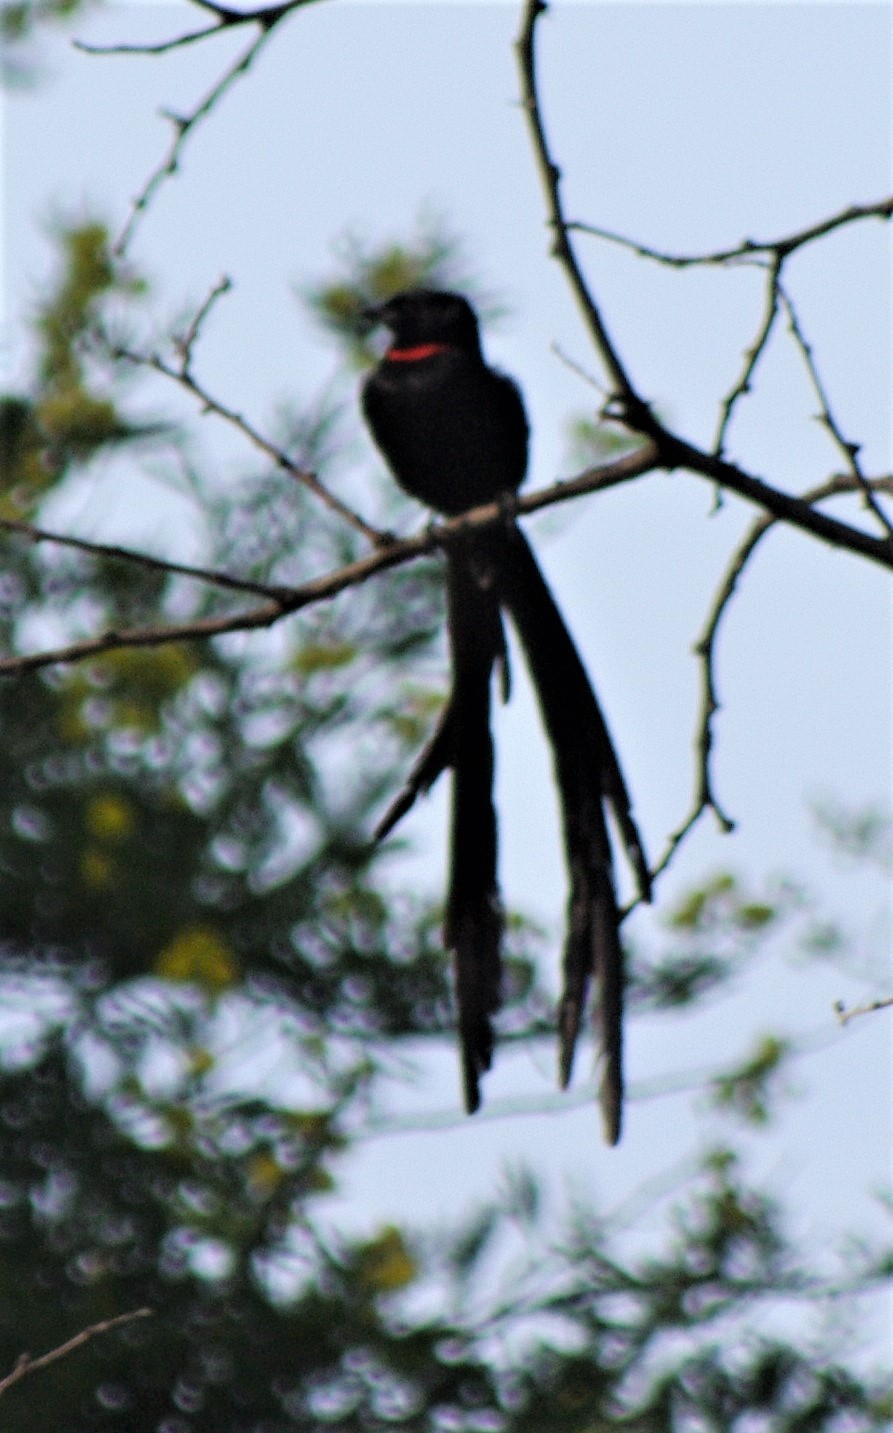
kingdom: Animalia
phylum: Chordata
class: Aves
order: Passeriformes
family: Ploceidae
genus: Euplectes
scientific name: Euplectes ardens
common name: Red-collared widowbird
